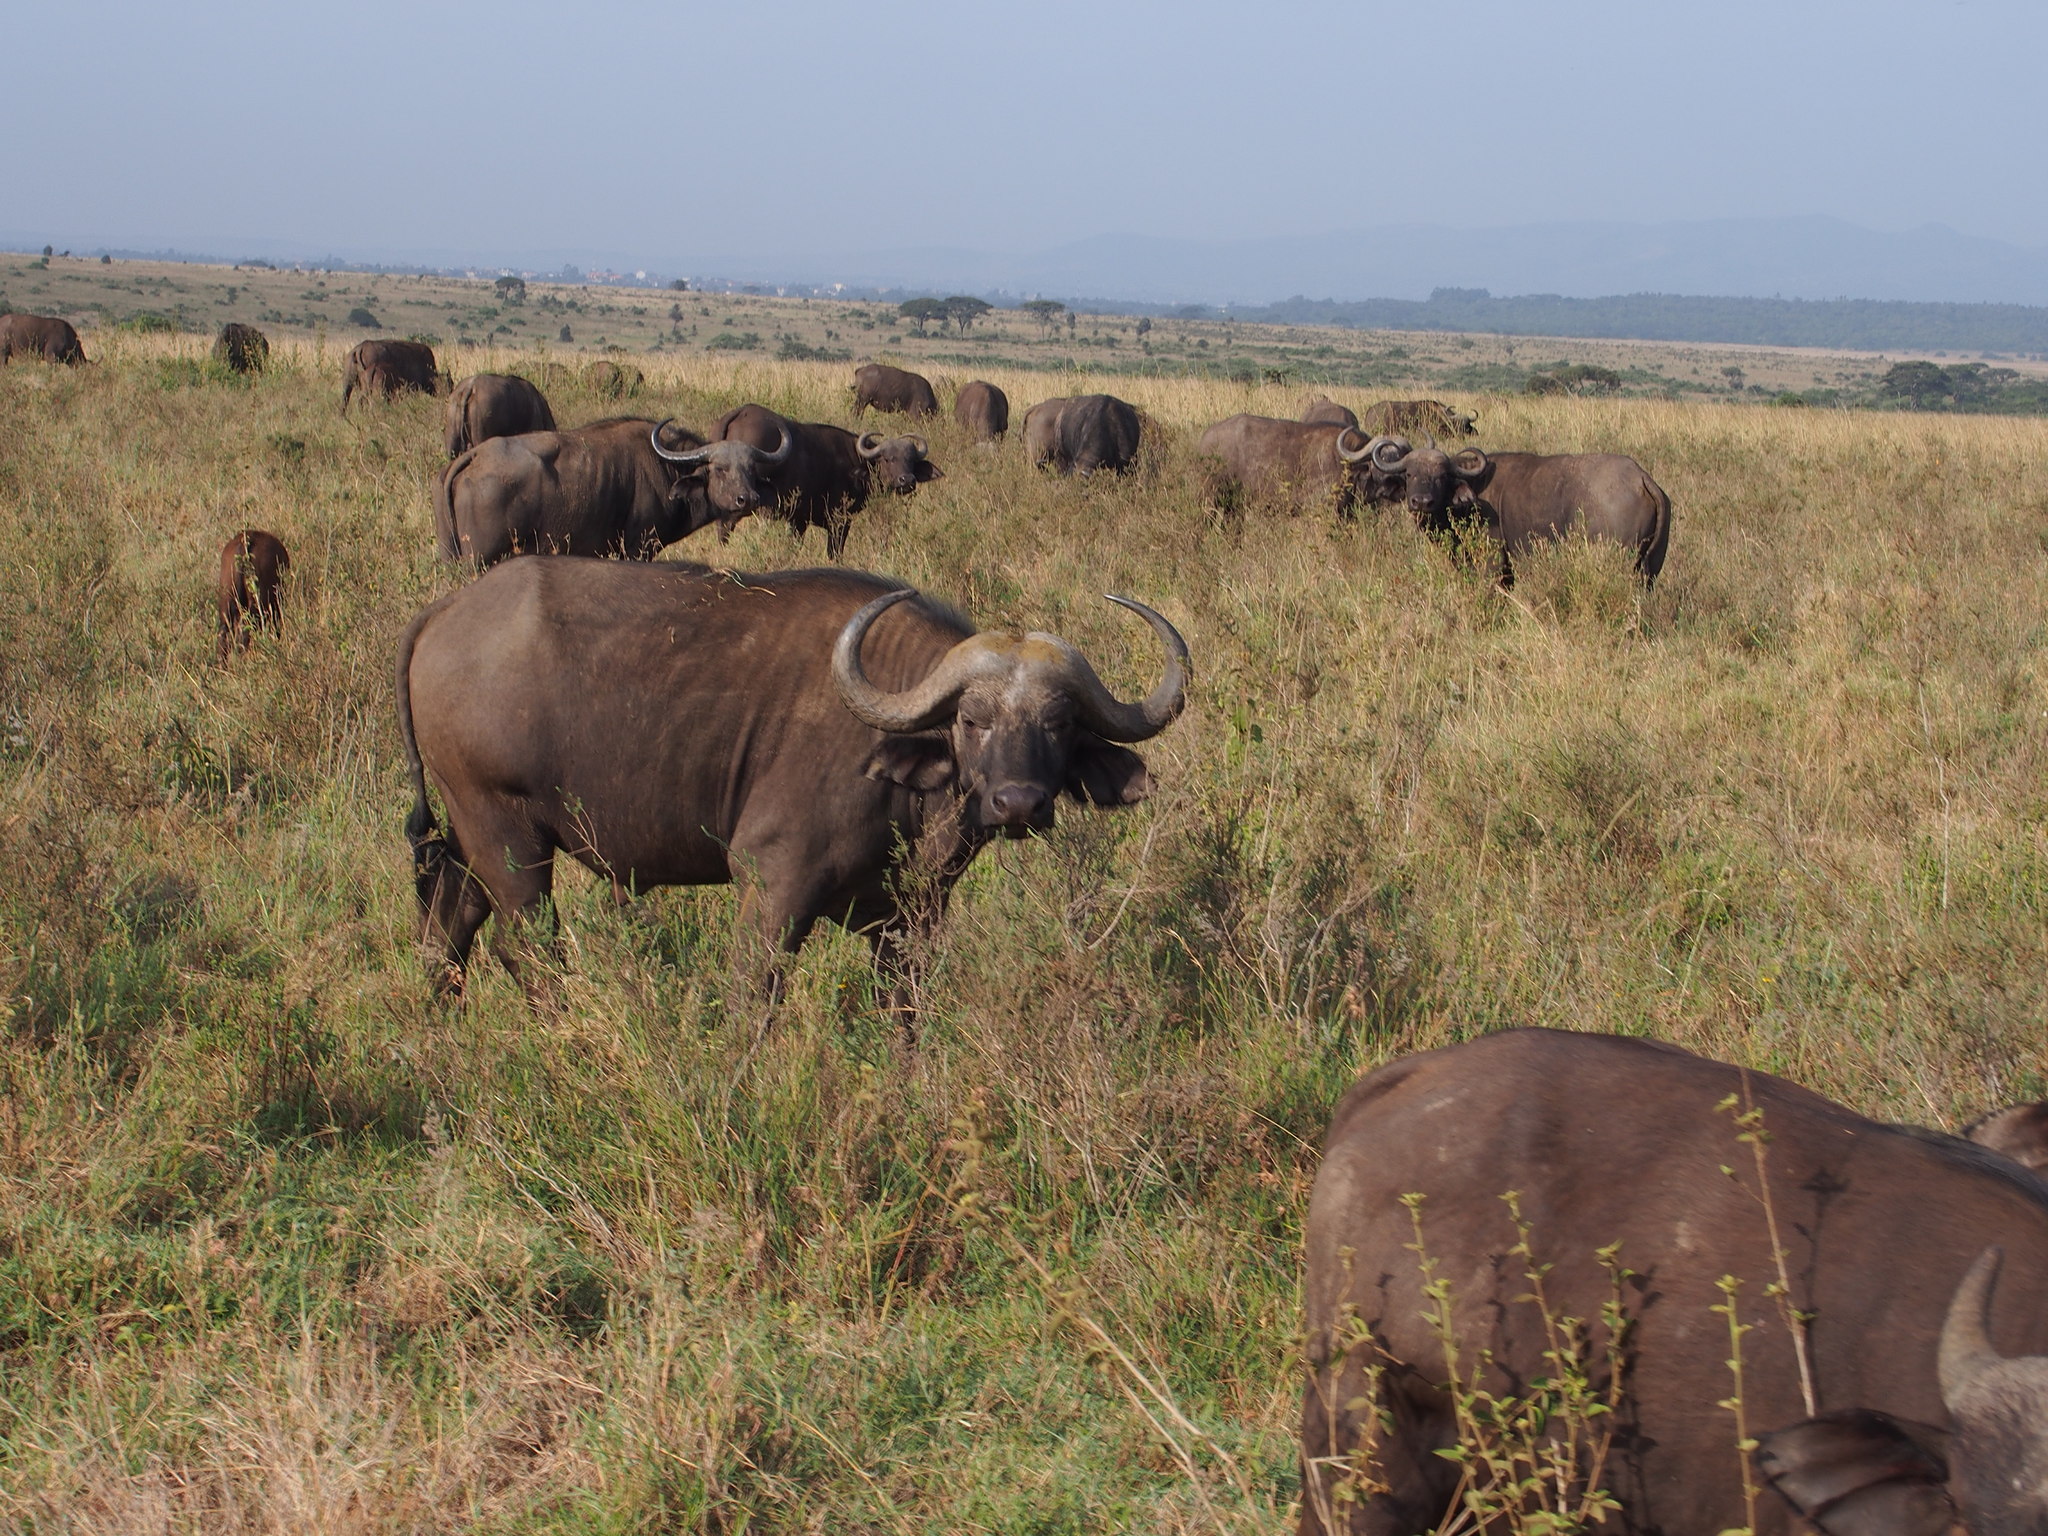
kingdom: Animalia
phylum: Chordata
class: Mammalia
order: Artiodactyla
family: Bovidae
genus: Syncerus
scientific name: Syncerus caffer
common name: African buffalo
